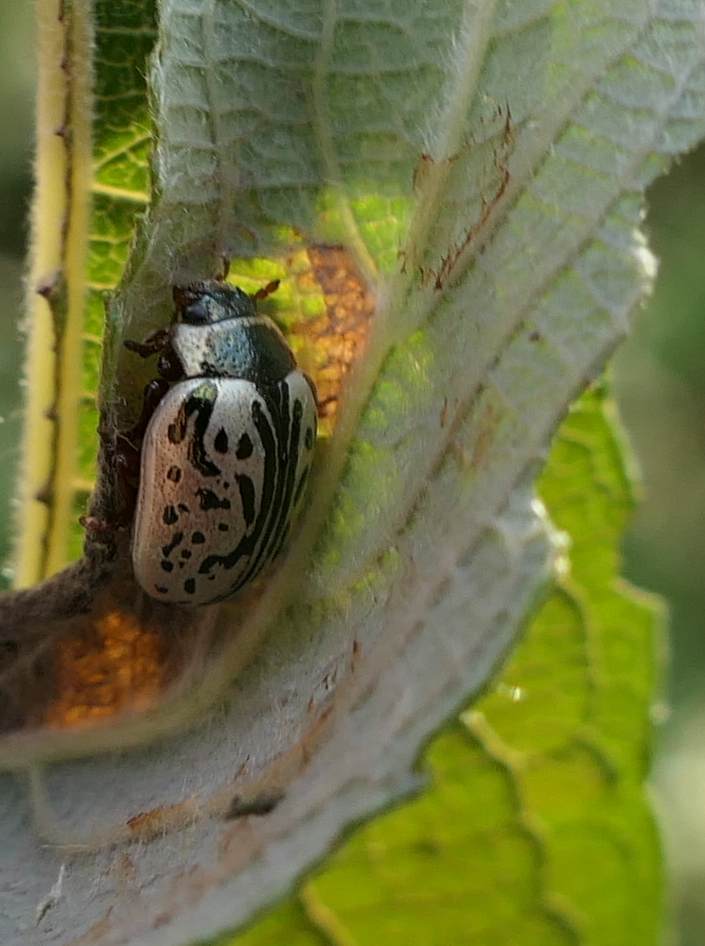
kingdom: Animalia
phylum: Arthropoda
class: Insecta
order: Coleoptera
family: Chrysomelidae
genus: Calligrapha
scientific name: Calligrapha multipunctata
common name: Common willow calligrapher beetle
